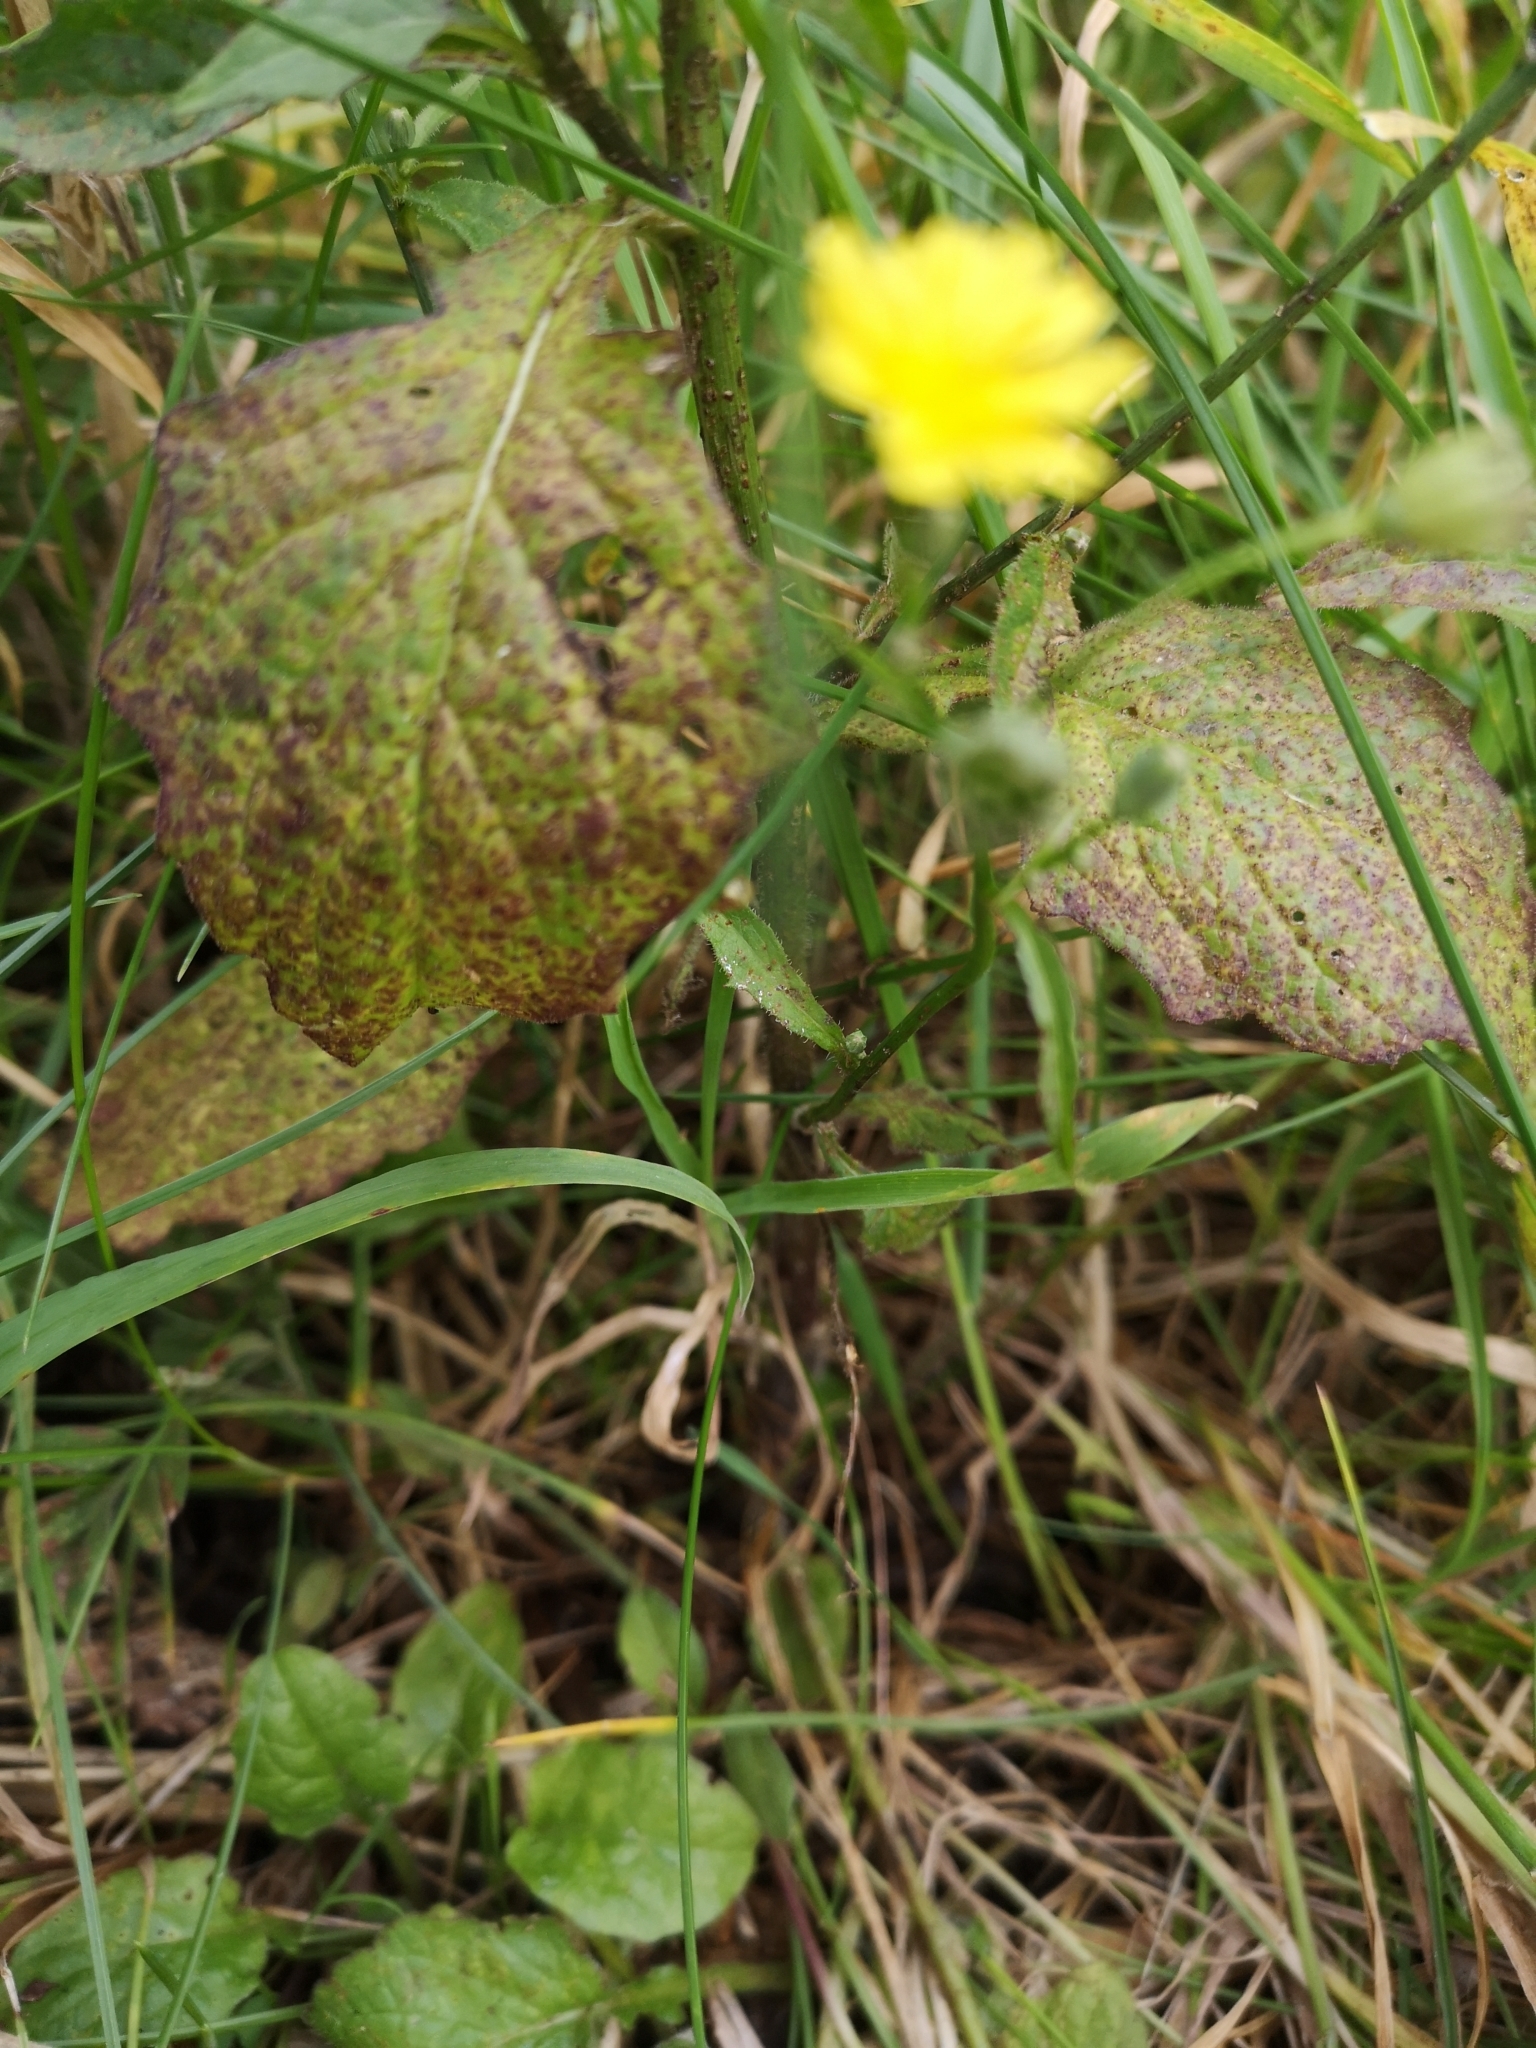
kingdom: Plantae
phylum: Tracheophyta
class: Magnoliopsida
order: Asterales
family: Asteraceae
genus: Lapsana
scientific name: Lapsana communis
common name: Nipplewort
